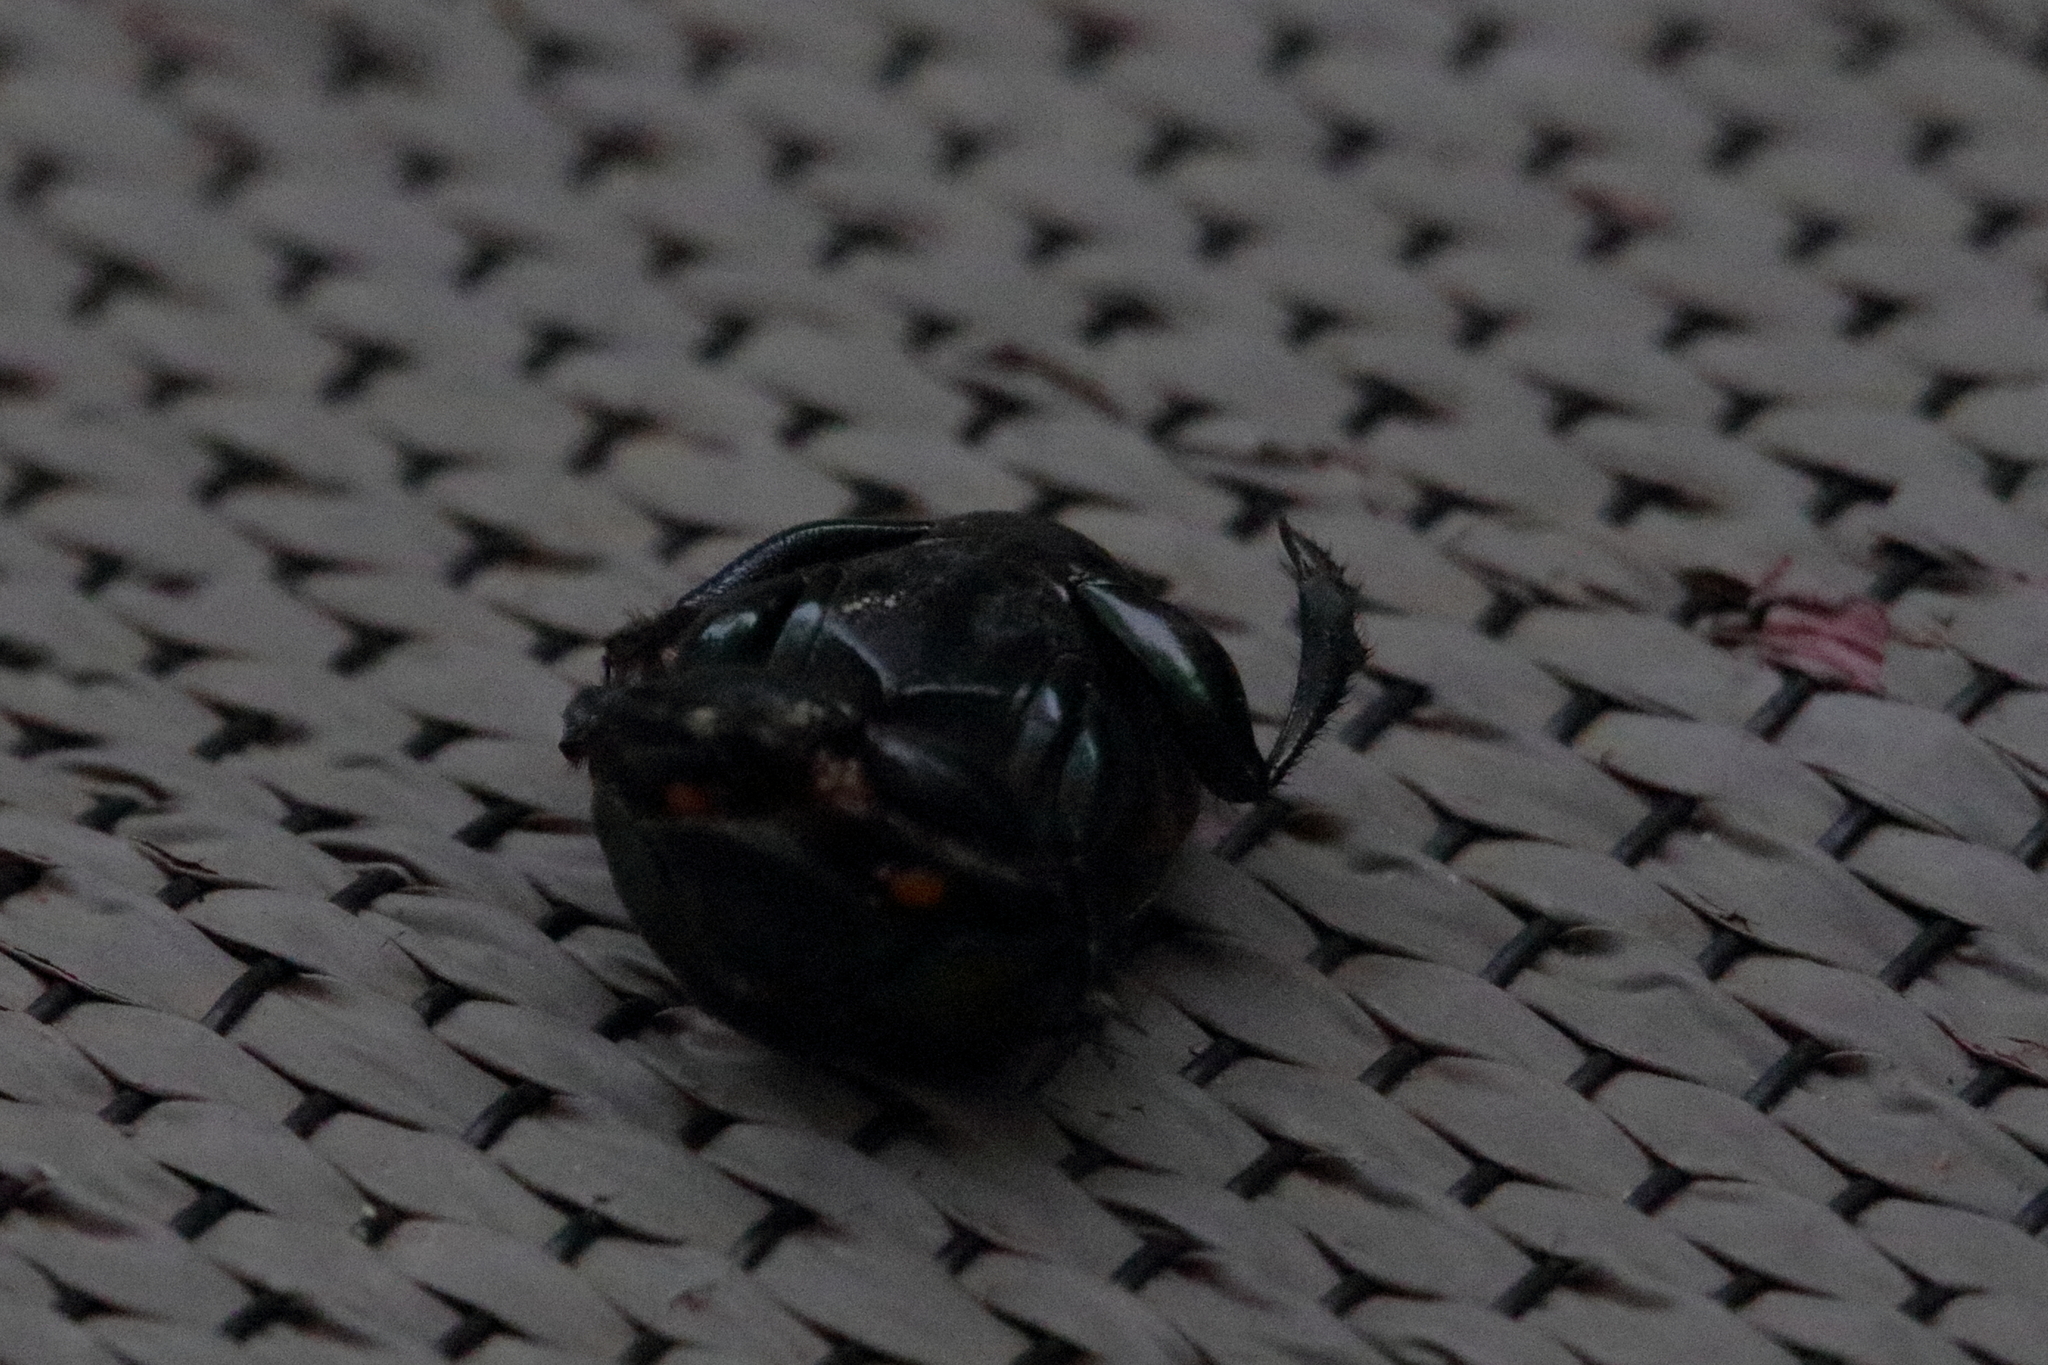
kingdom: Animalia
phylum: Arthropoda
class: Insecta
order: Coleoptera
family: Scarabaeidae
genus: Phanaeus
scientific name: Phanaeus vindex
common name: Rainbow scarab
